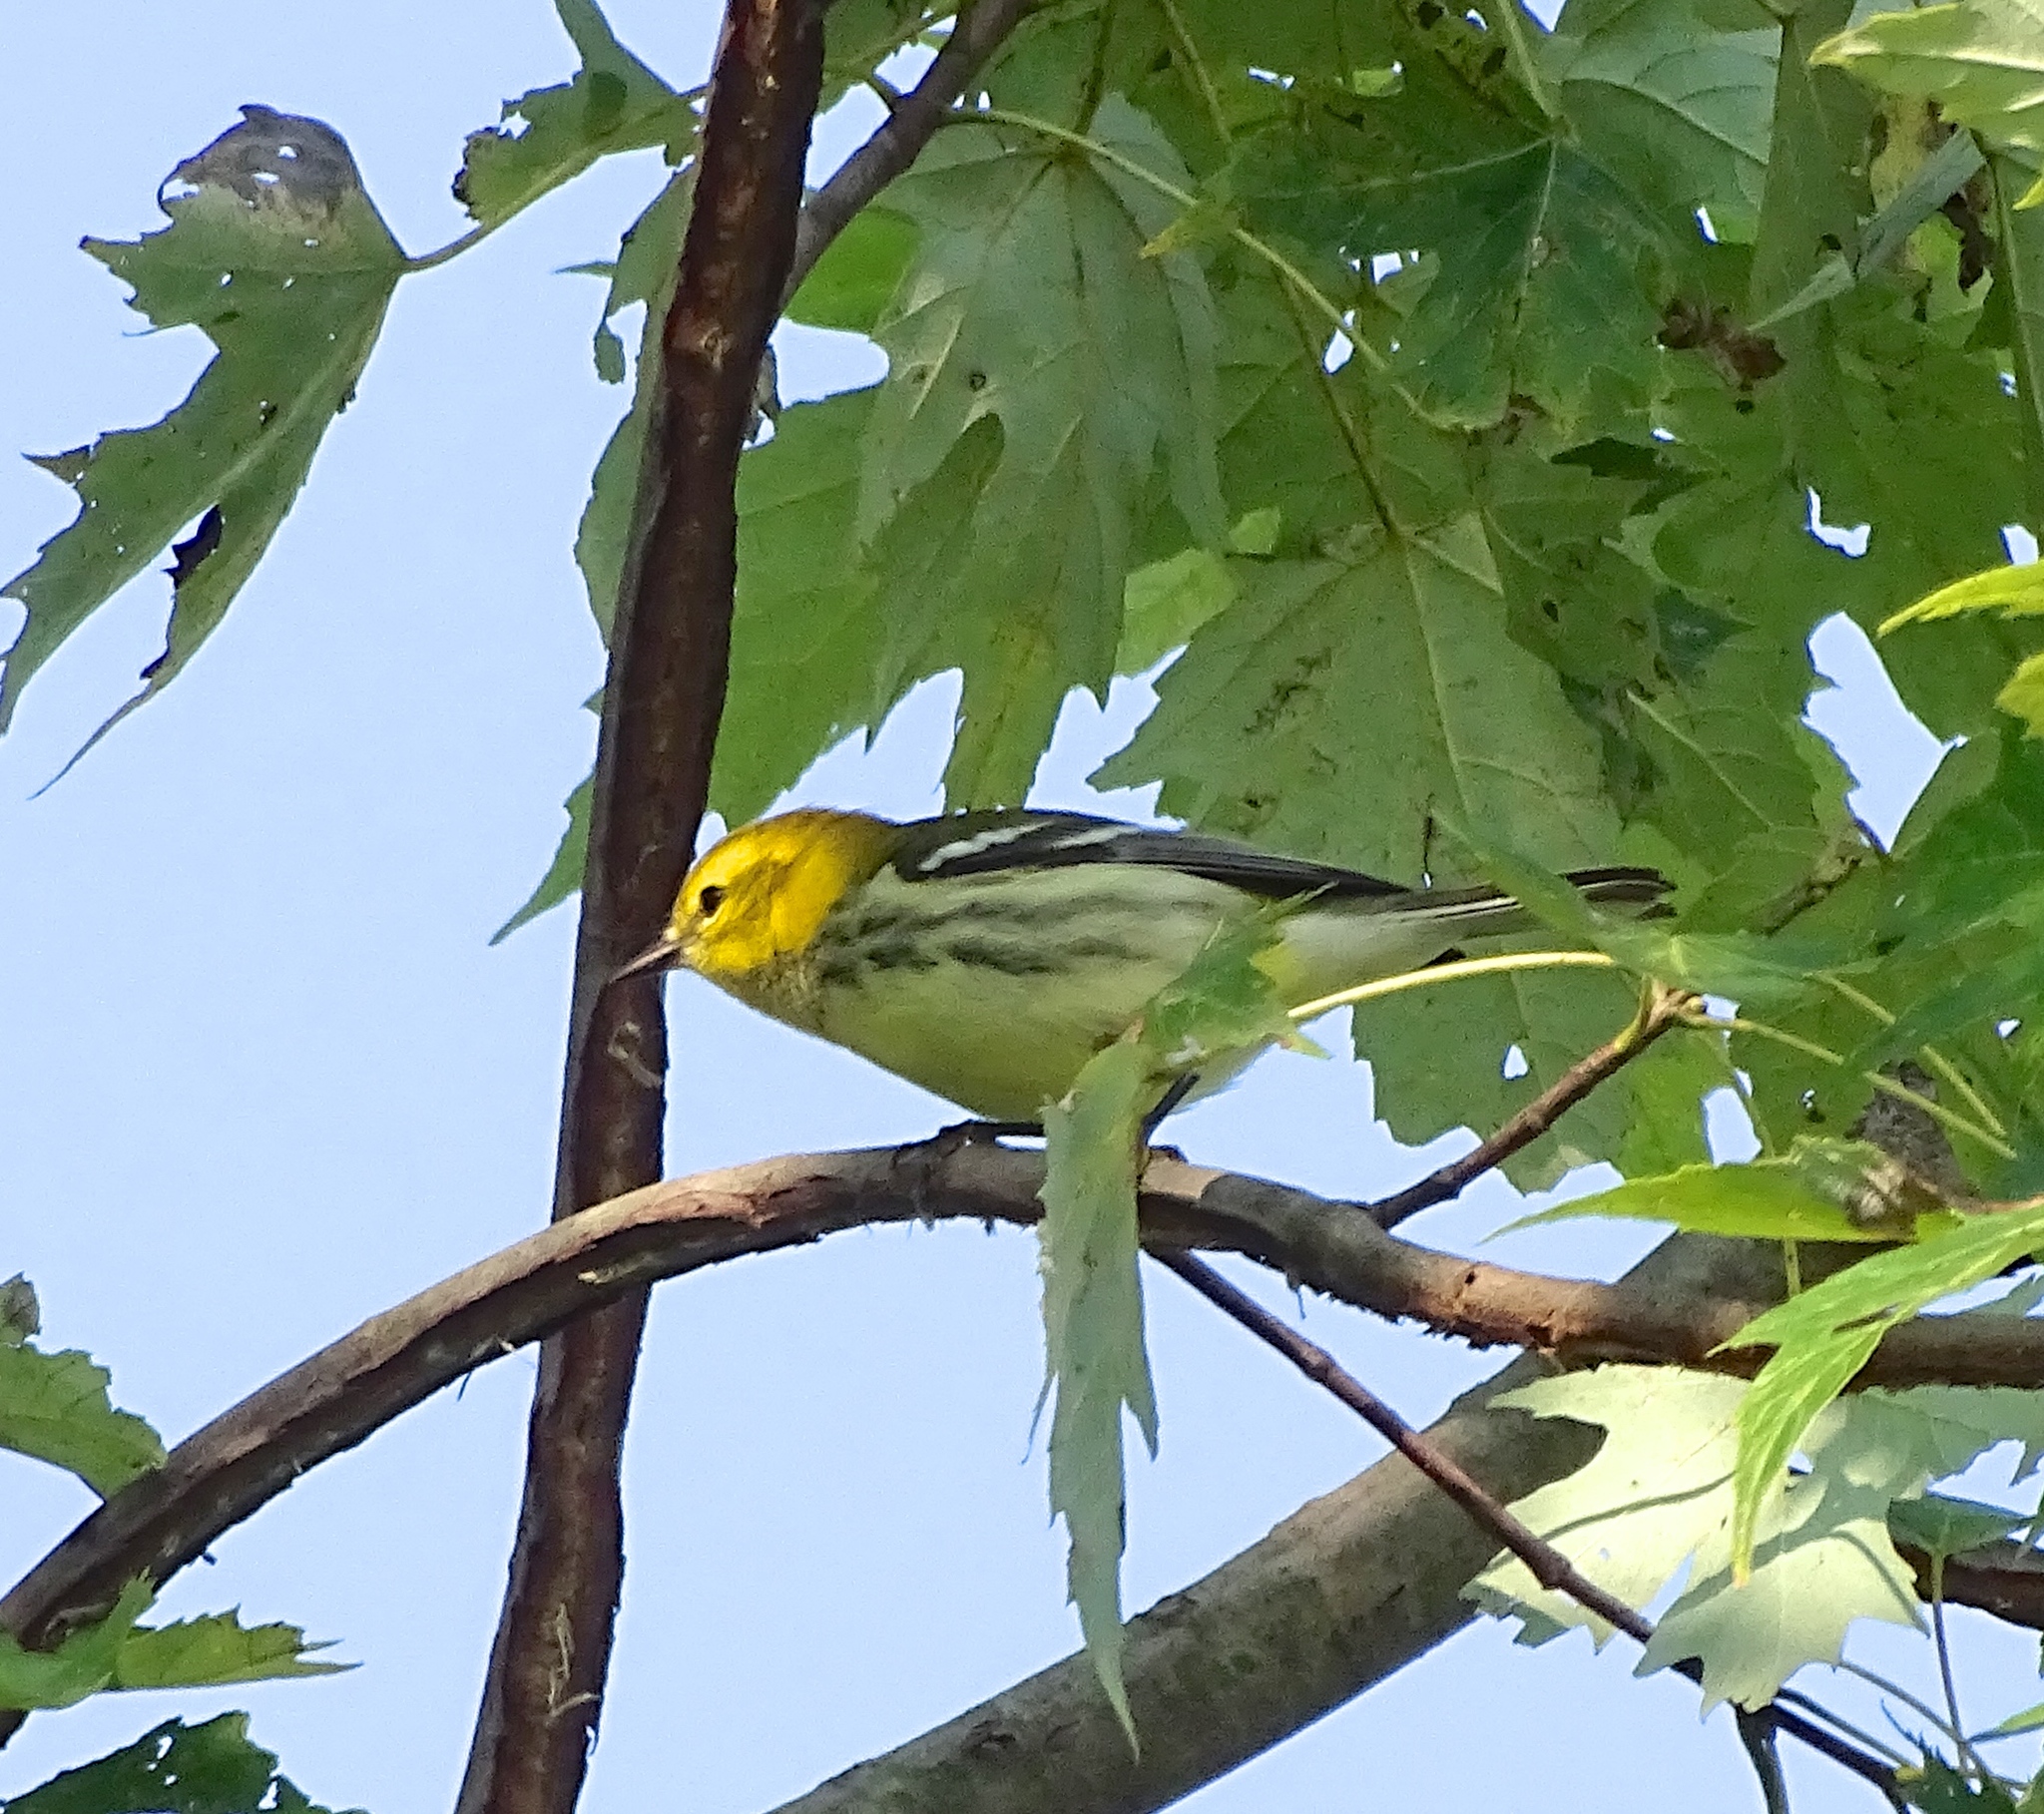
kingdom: Animalia
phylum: Chordata
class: Aves
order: Passeriformes
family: Parulidae
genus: Setophaga
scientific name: Setophaga virens
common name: Black-throated green warbler
